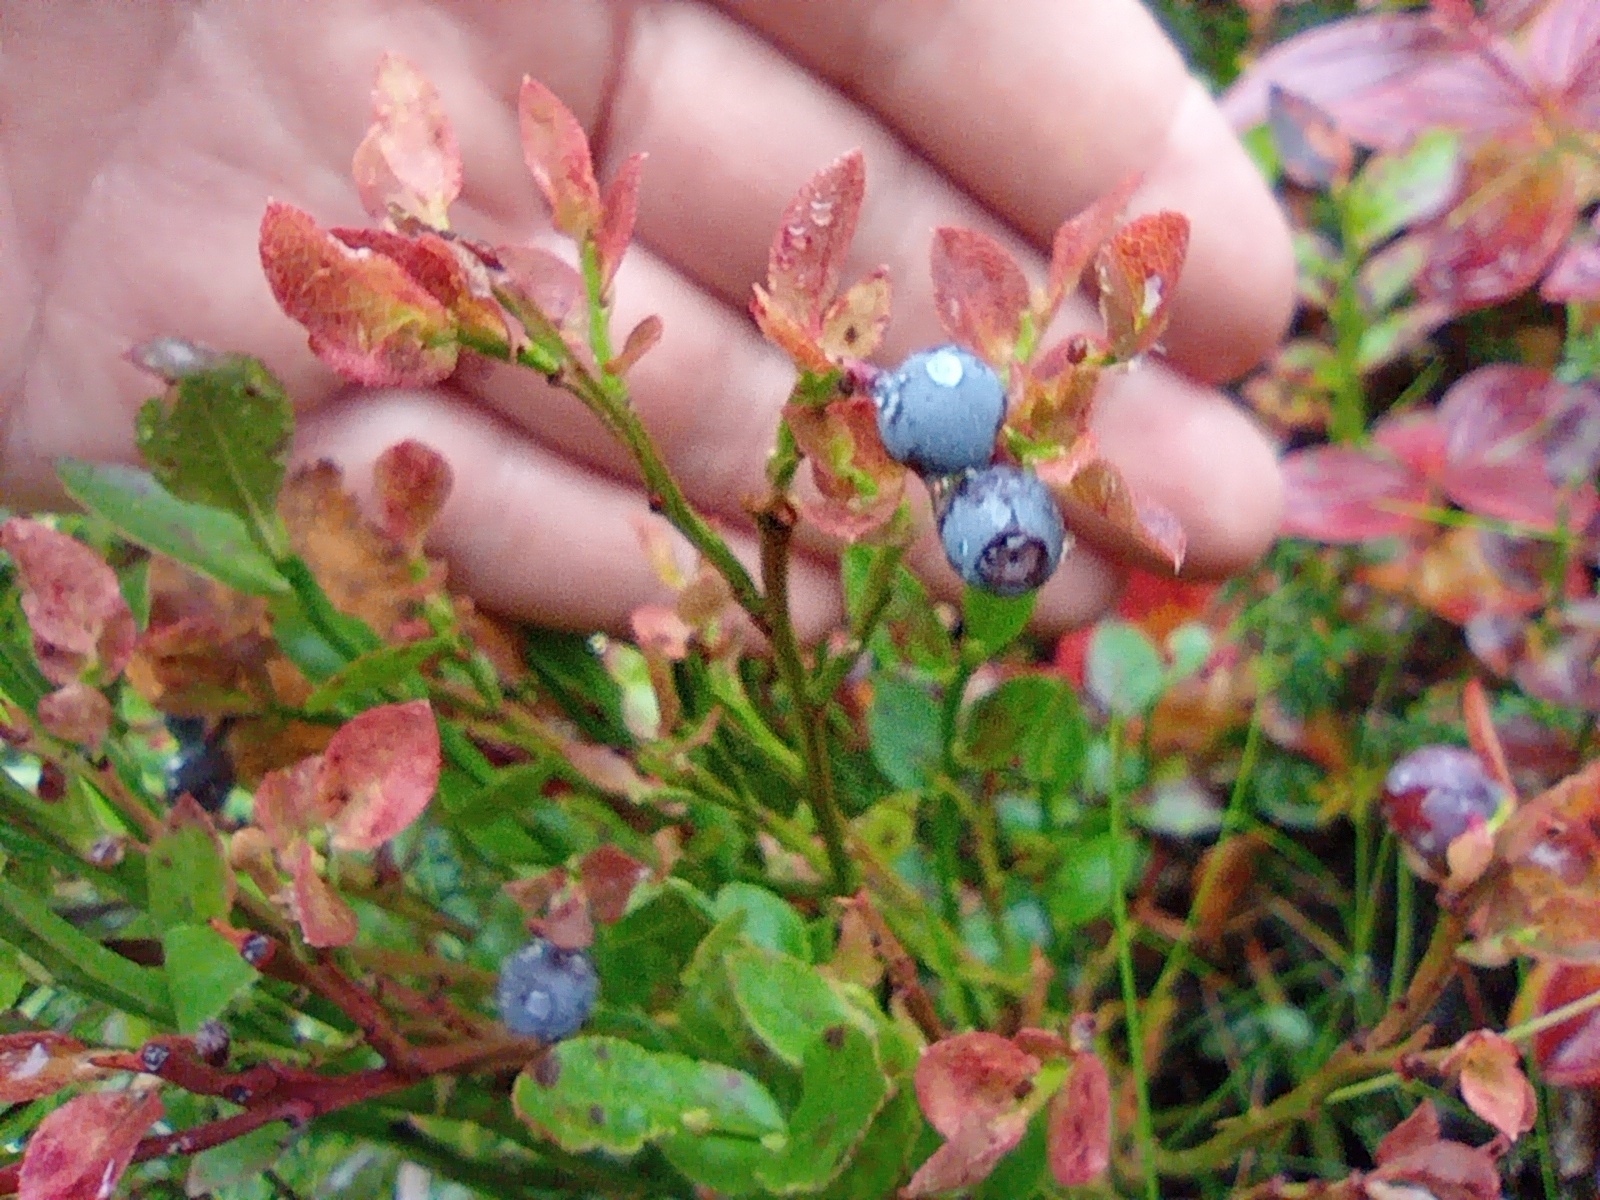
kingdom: Plantae
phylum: Tracheophyta
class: Magnoliopsida
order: Ericales
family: Ericaceae
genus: Vaccinium
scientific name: Vaccinium myrtillus
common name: Bilberry
